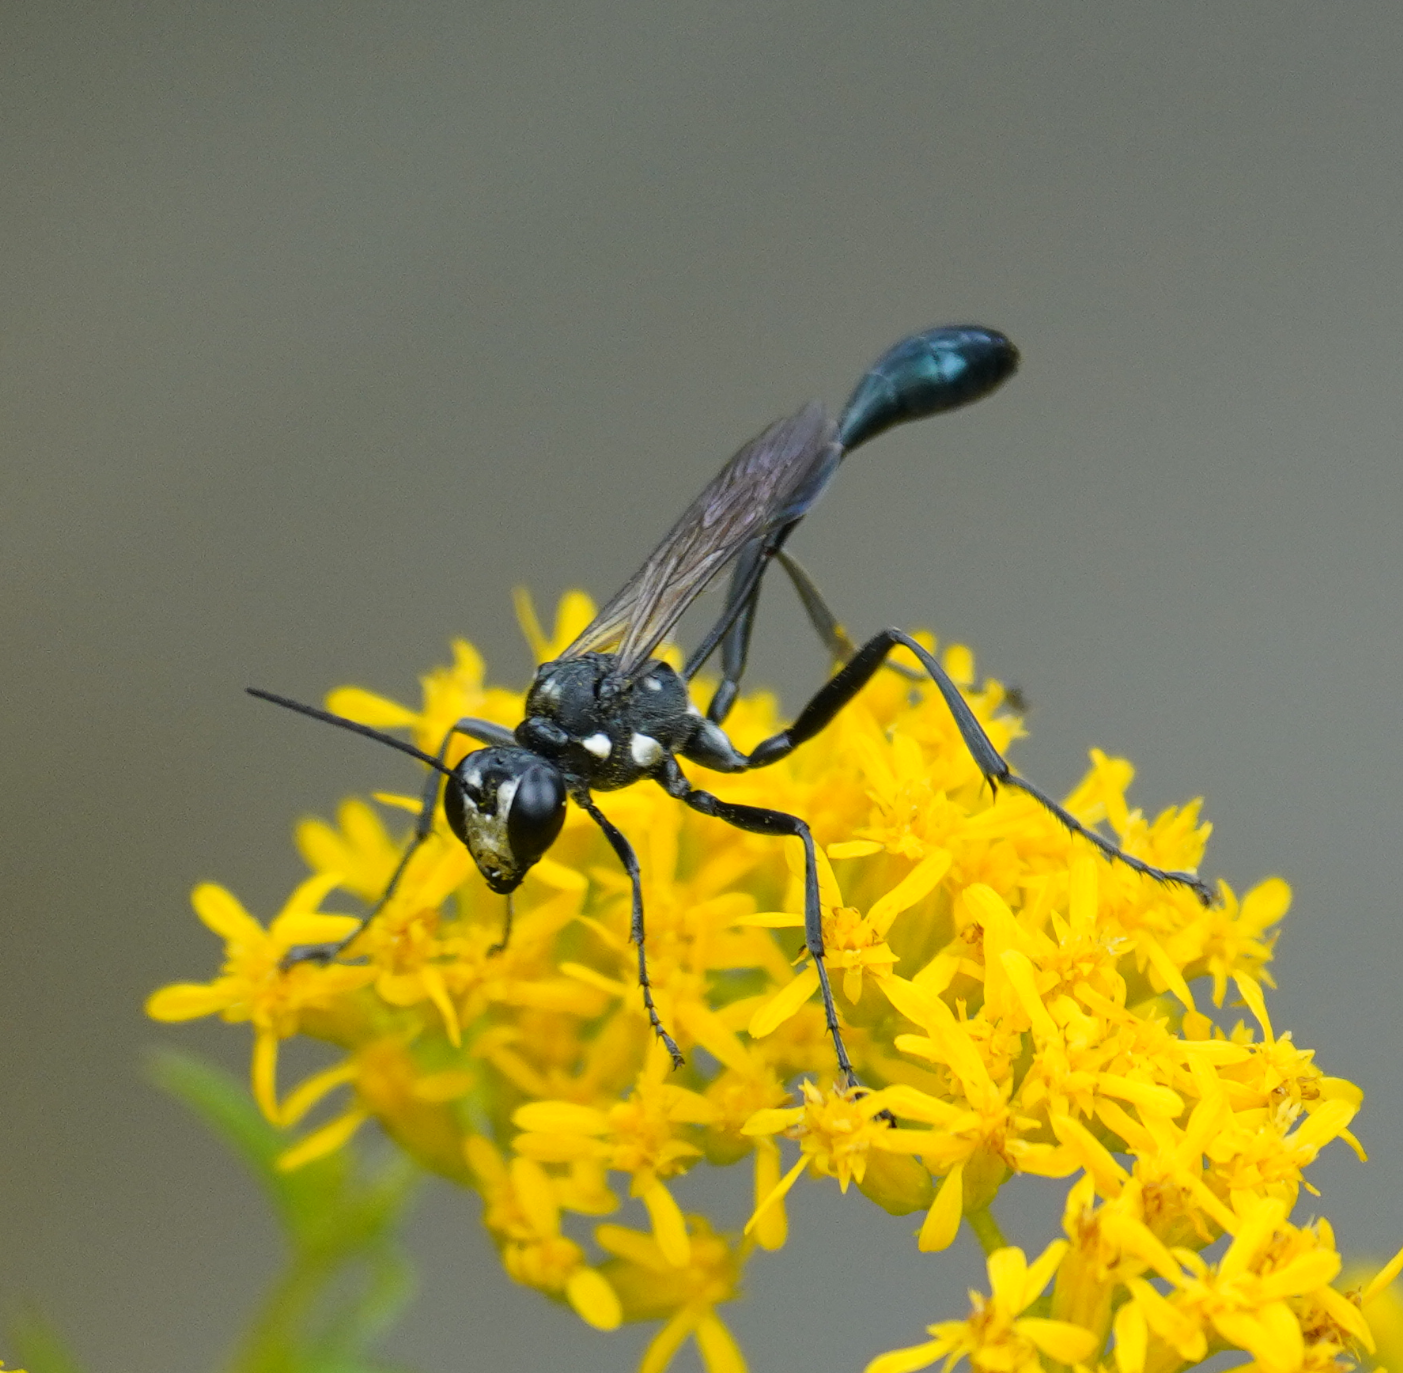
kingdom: Animalia
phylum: Arthropoda
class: Insecta
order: Hymenoptera
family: Sphecidae
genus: Eremnophila
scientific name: Eremnophila aureonotata
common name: Gold-marked thread-waisted wasp
